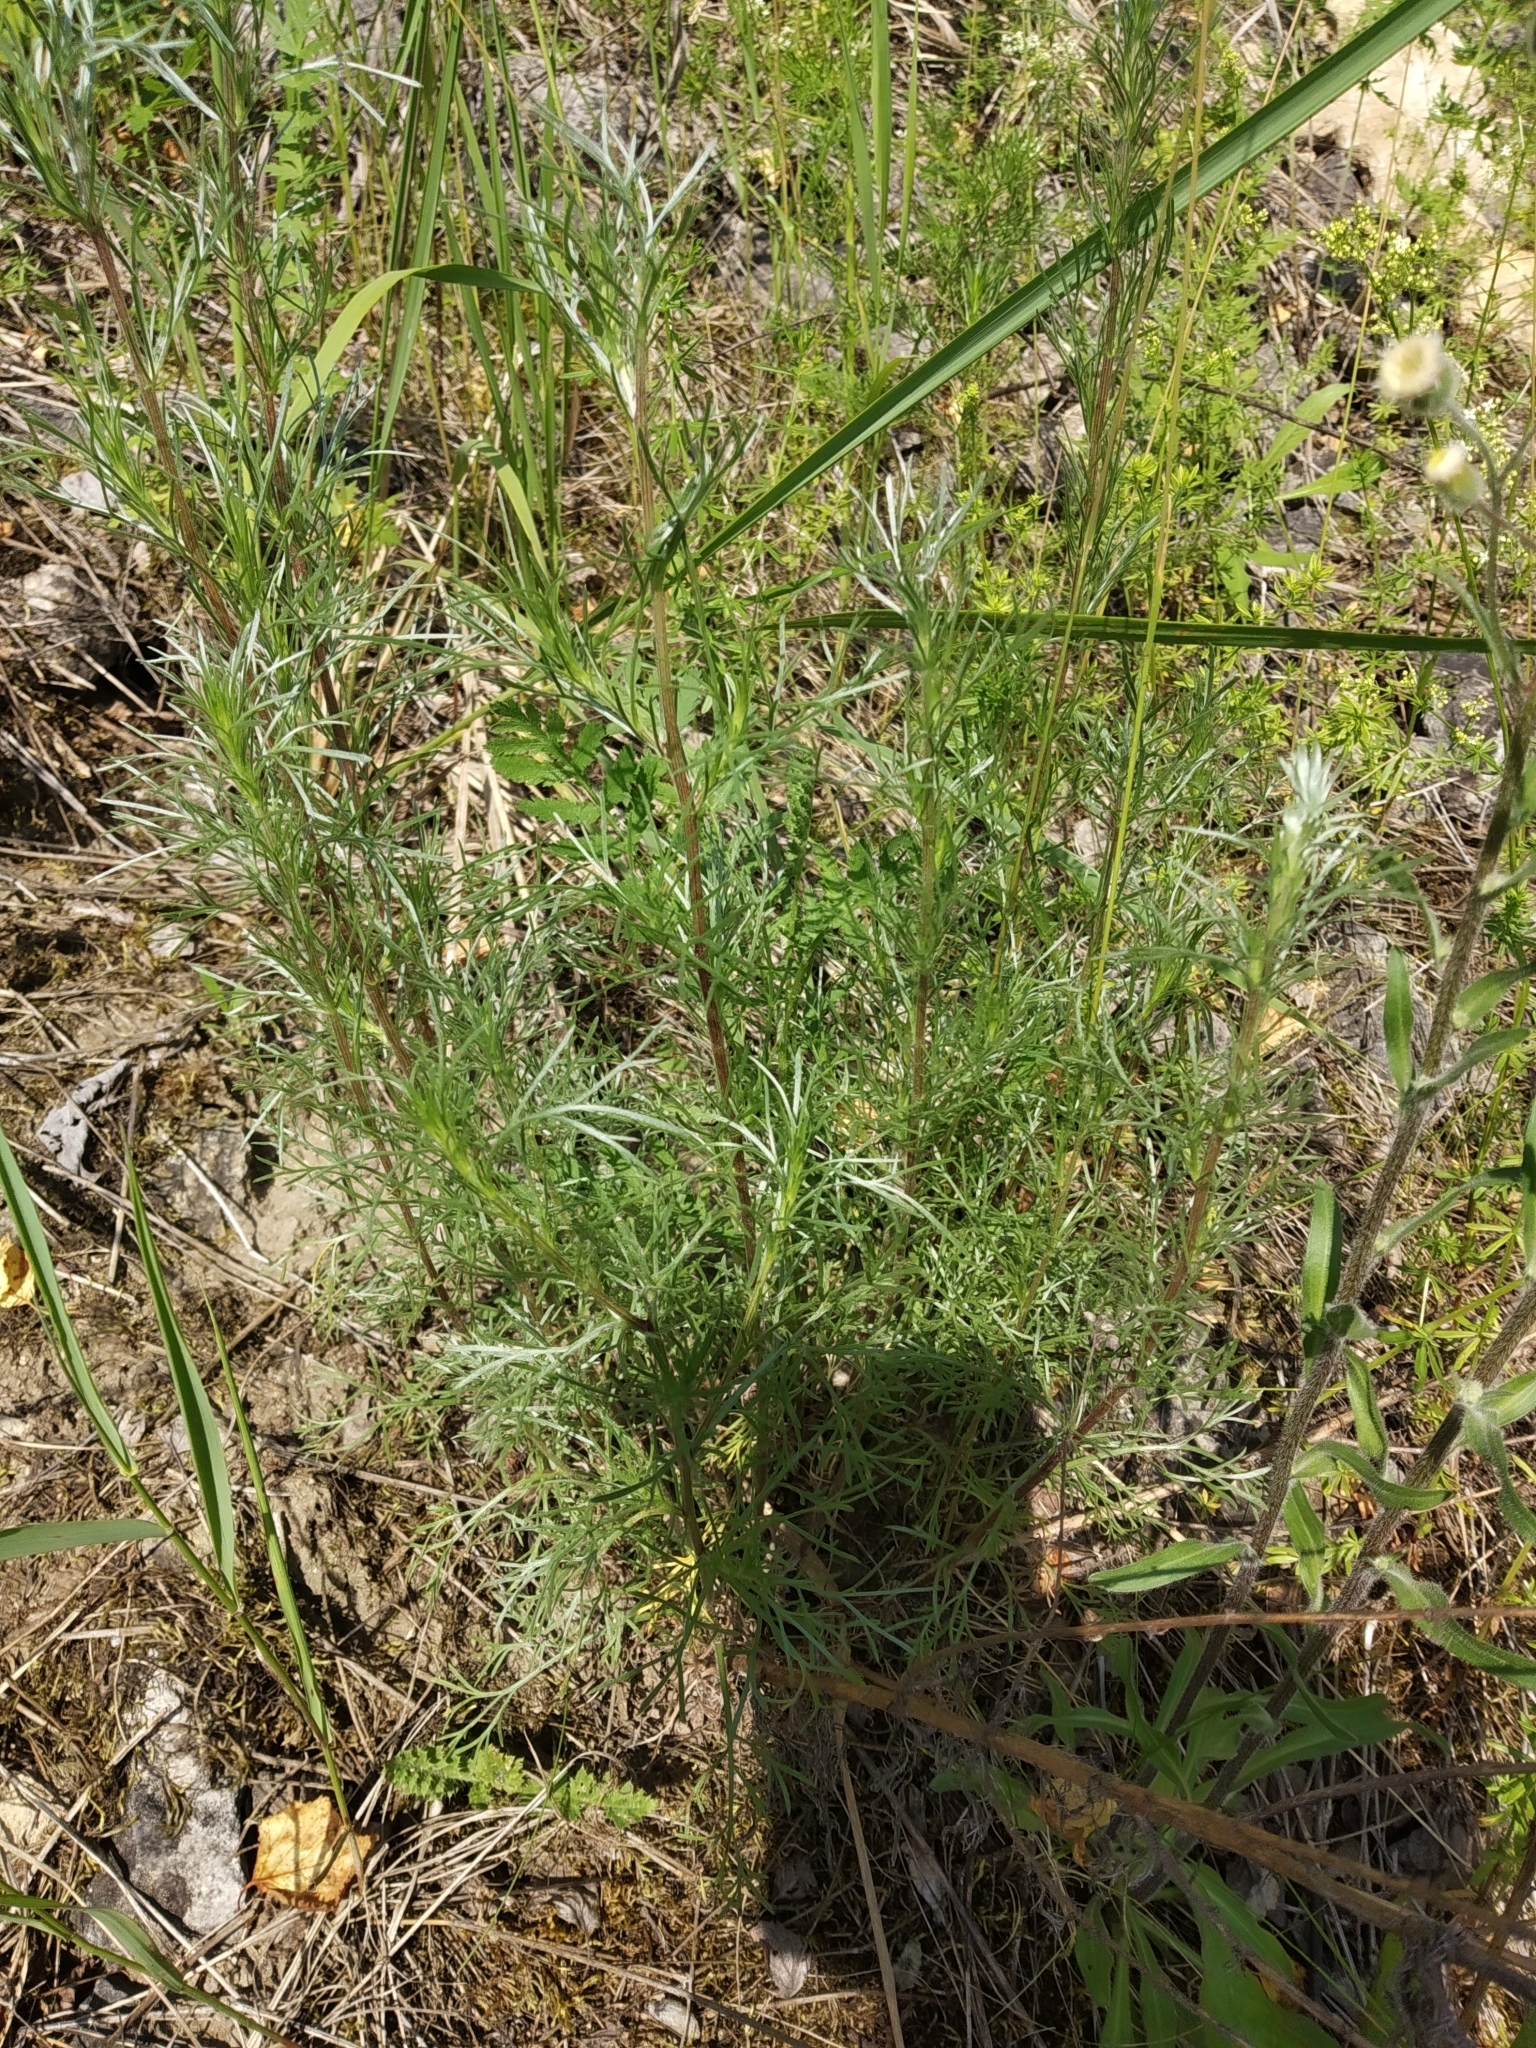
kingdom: Plantae
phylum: Tracheophyta
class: Magnoliopsida
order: Asterales
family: Asteraceae
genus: Artemisia
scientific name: Artemisia campestris
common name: Field wormwood
